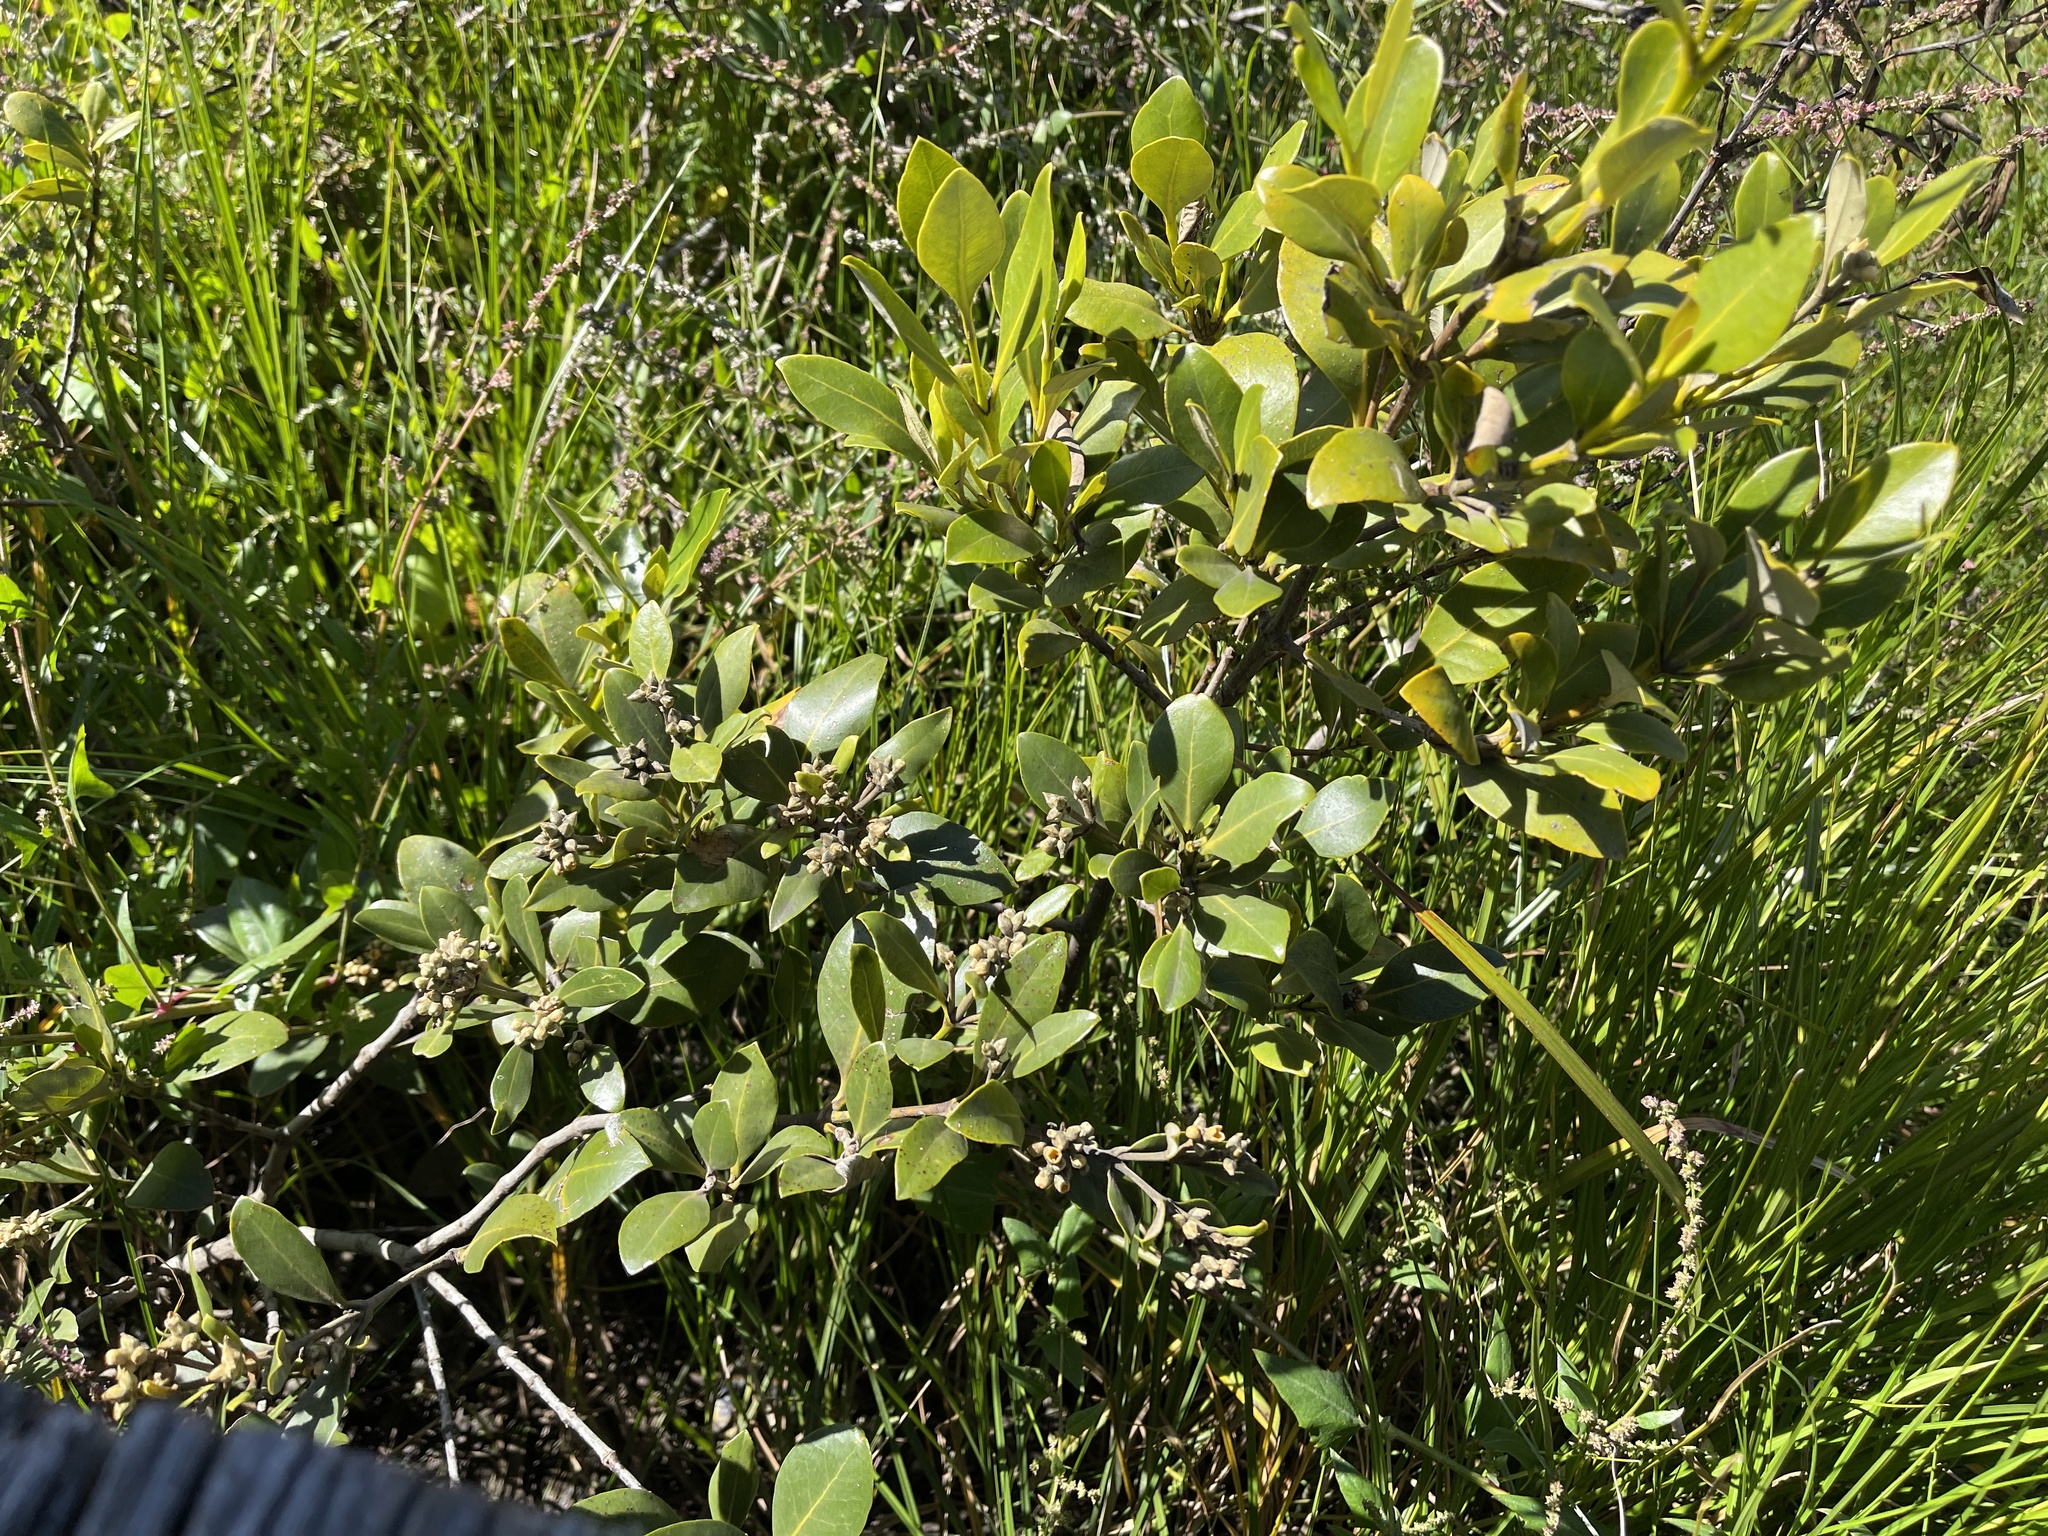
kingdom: Plantae
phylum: Tracheophyta
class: Magnoliopsida
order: Lamiales
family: Acanthaceae
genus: Avicennia
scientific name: Avicennia marina
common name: Gray mangrove
